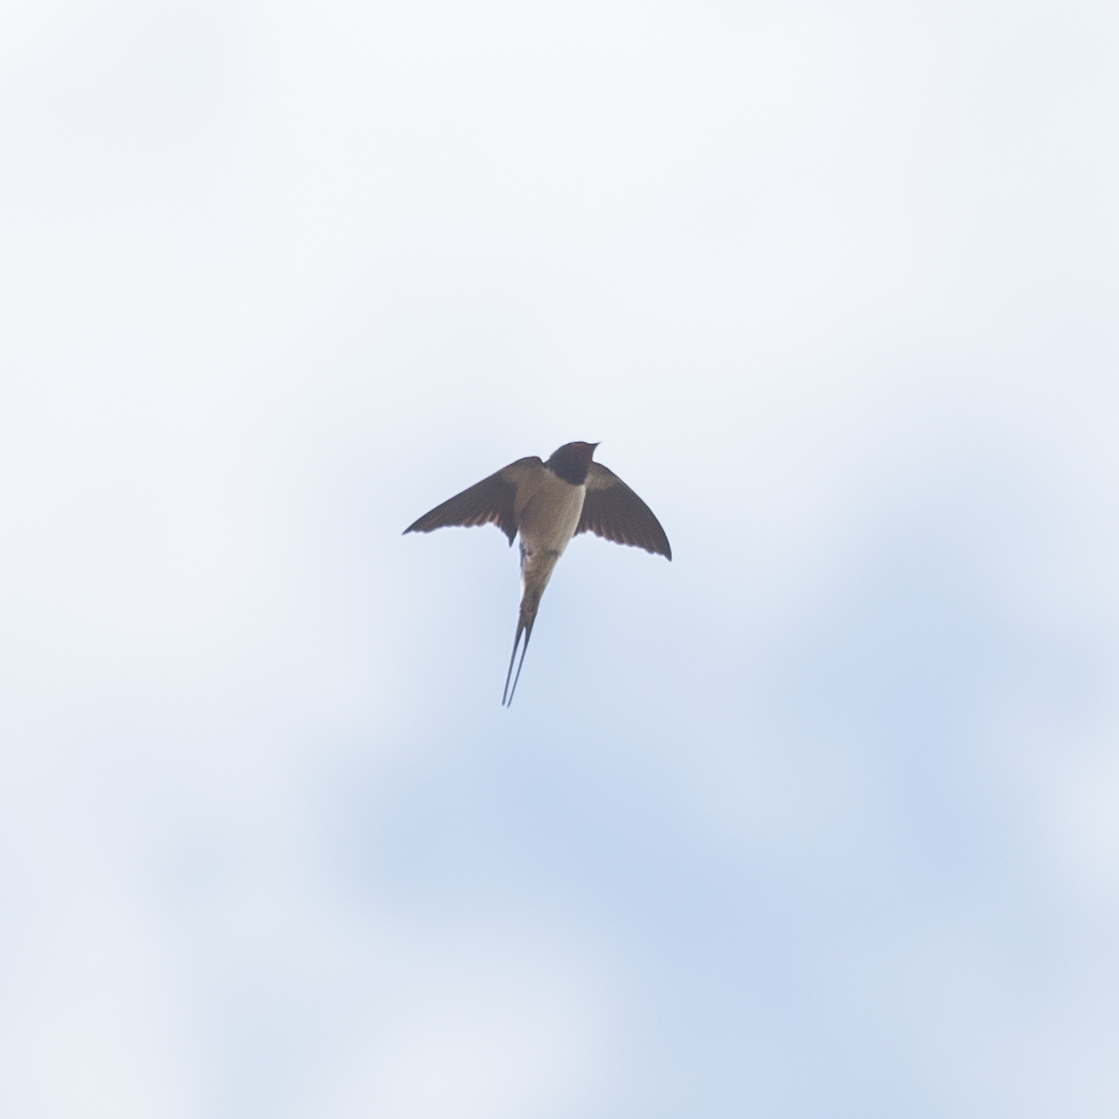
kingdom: Animalia
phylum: Chordata
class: Aves
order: Passeriformes
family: Hirundinidae
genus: Hirundo
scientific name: Hirundo rustica
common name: Barn swallow
